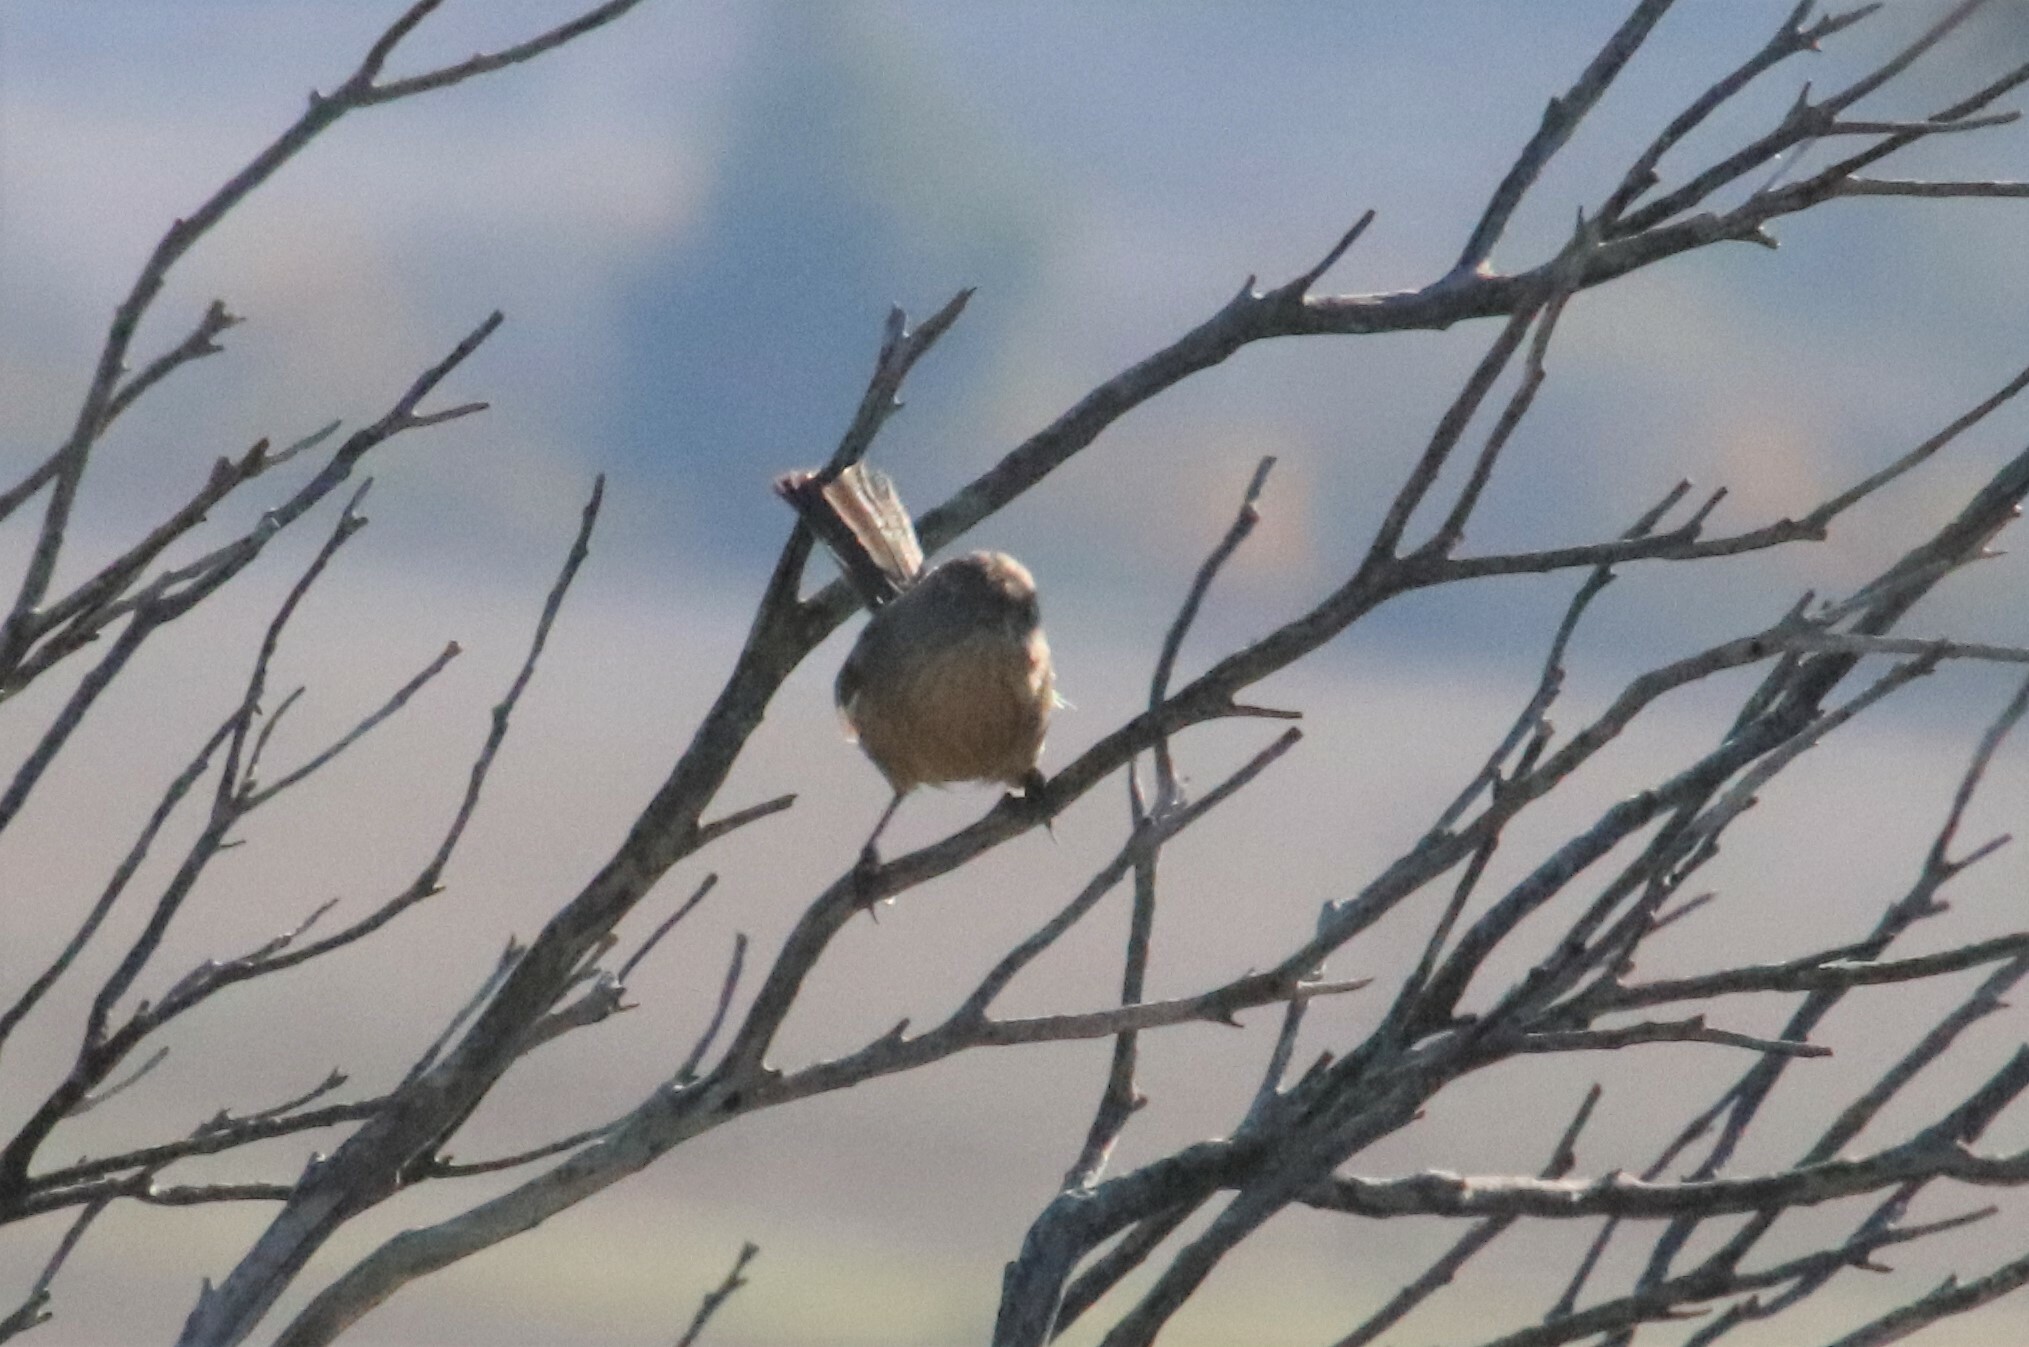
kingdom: Animalia
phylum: Chordata
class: Aves
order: Passeriformes
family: Sylviidae
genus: Chamaea
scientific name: Chamaea fasciata
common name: Wrentit
